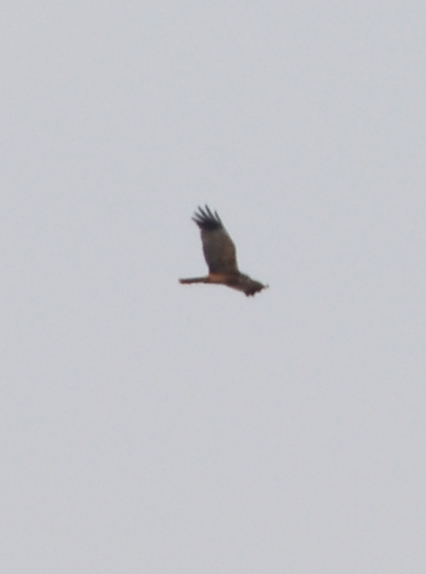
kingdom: Animalia
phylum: Chordata
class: Aves
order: Accipitriformes
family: Accipitridae
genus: Circus
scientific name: Circus aeruginosus
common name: Western marsh harrier
